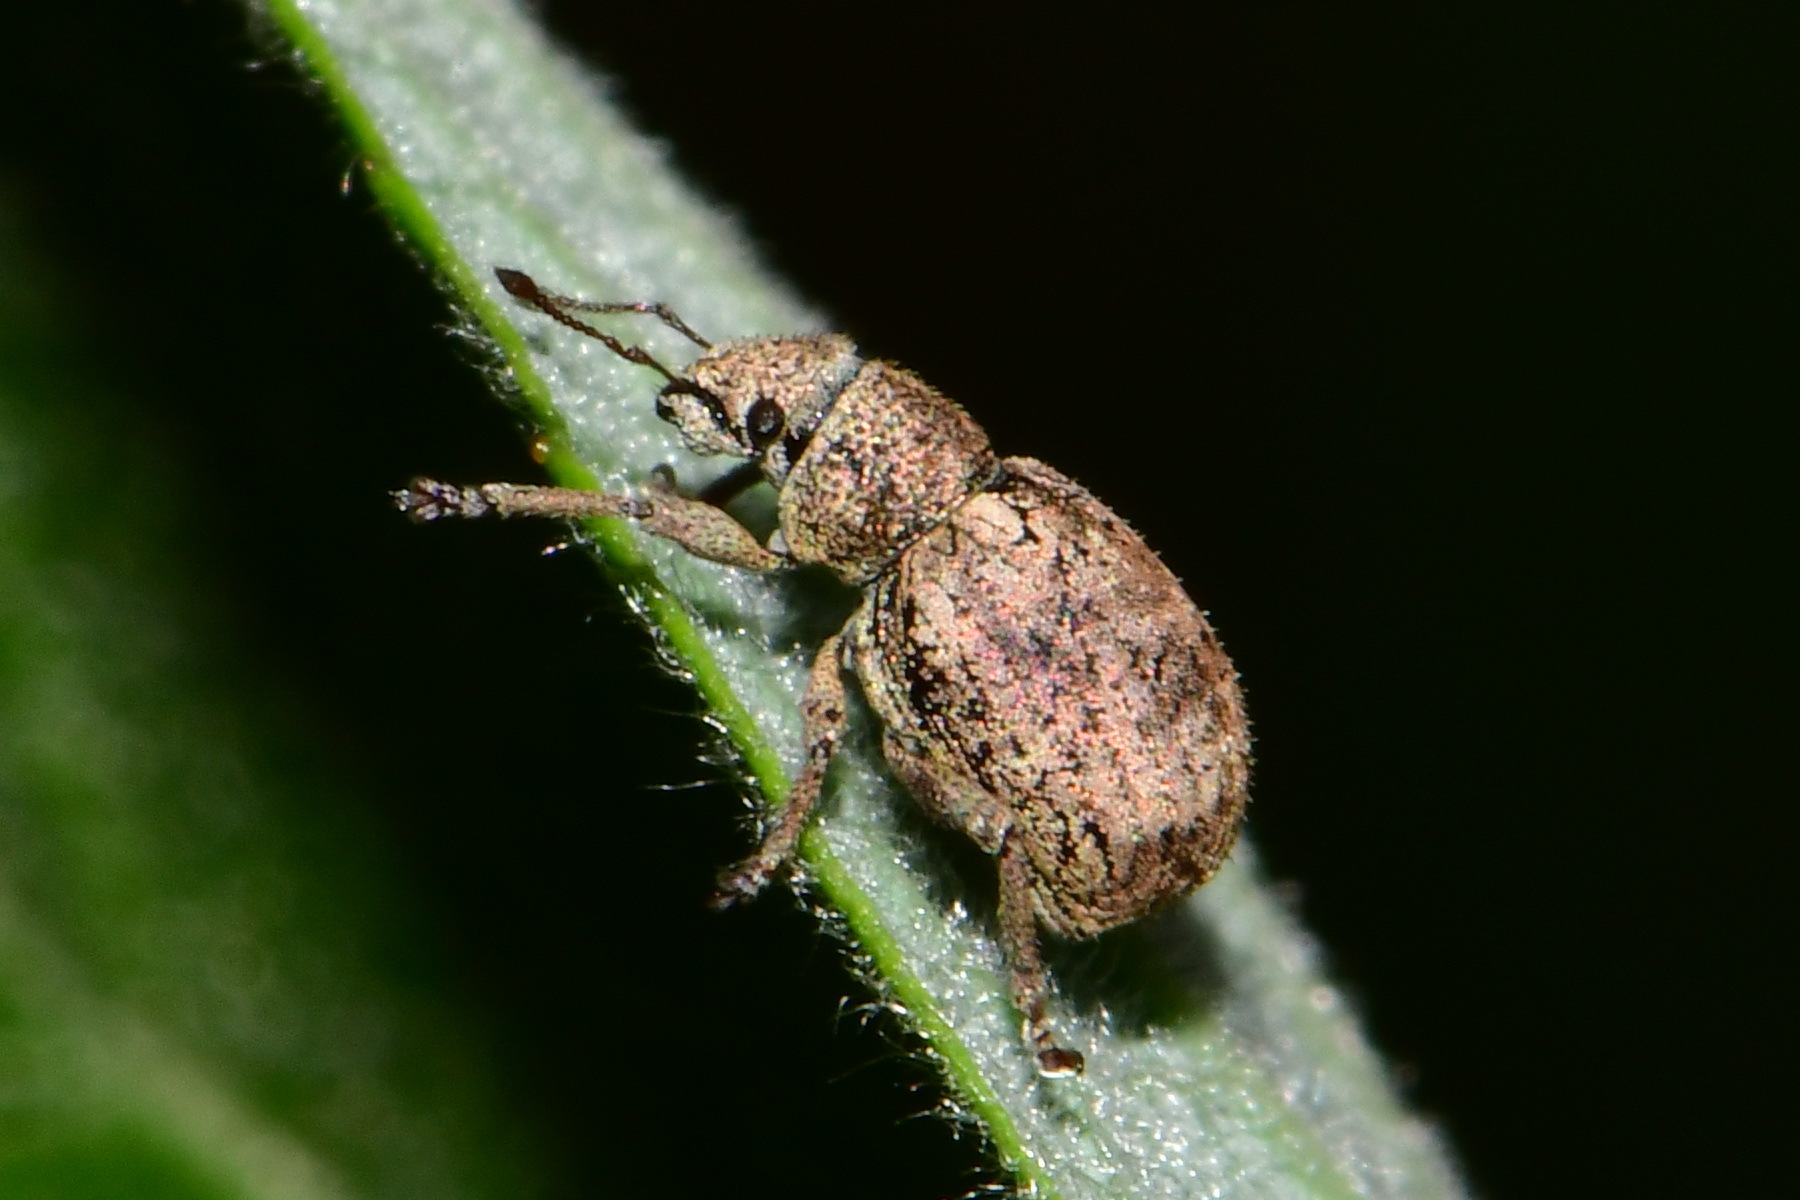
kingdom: Animalia
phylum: Arthropoda
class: Insecta
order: Coleoptera
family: Curculionidae
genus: Strophosoma
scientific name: Strophosoma capitatum
